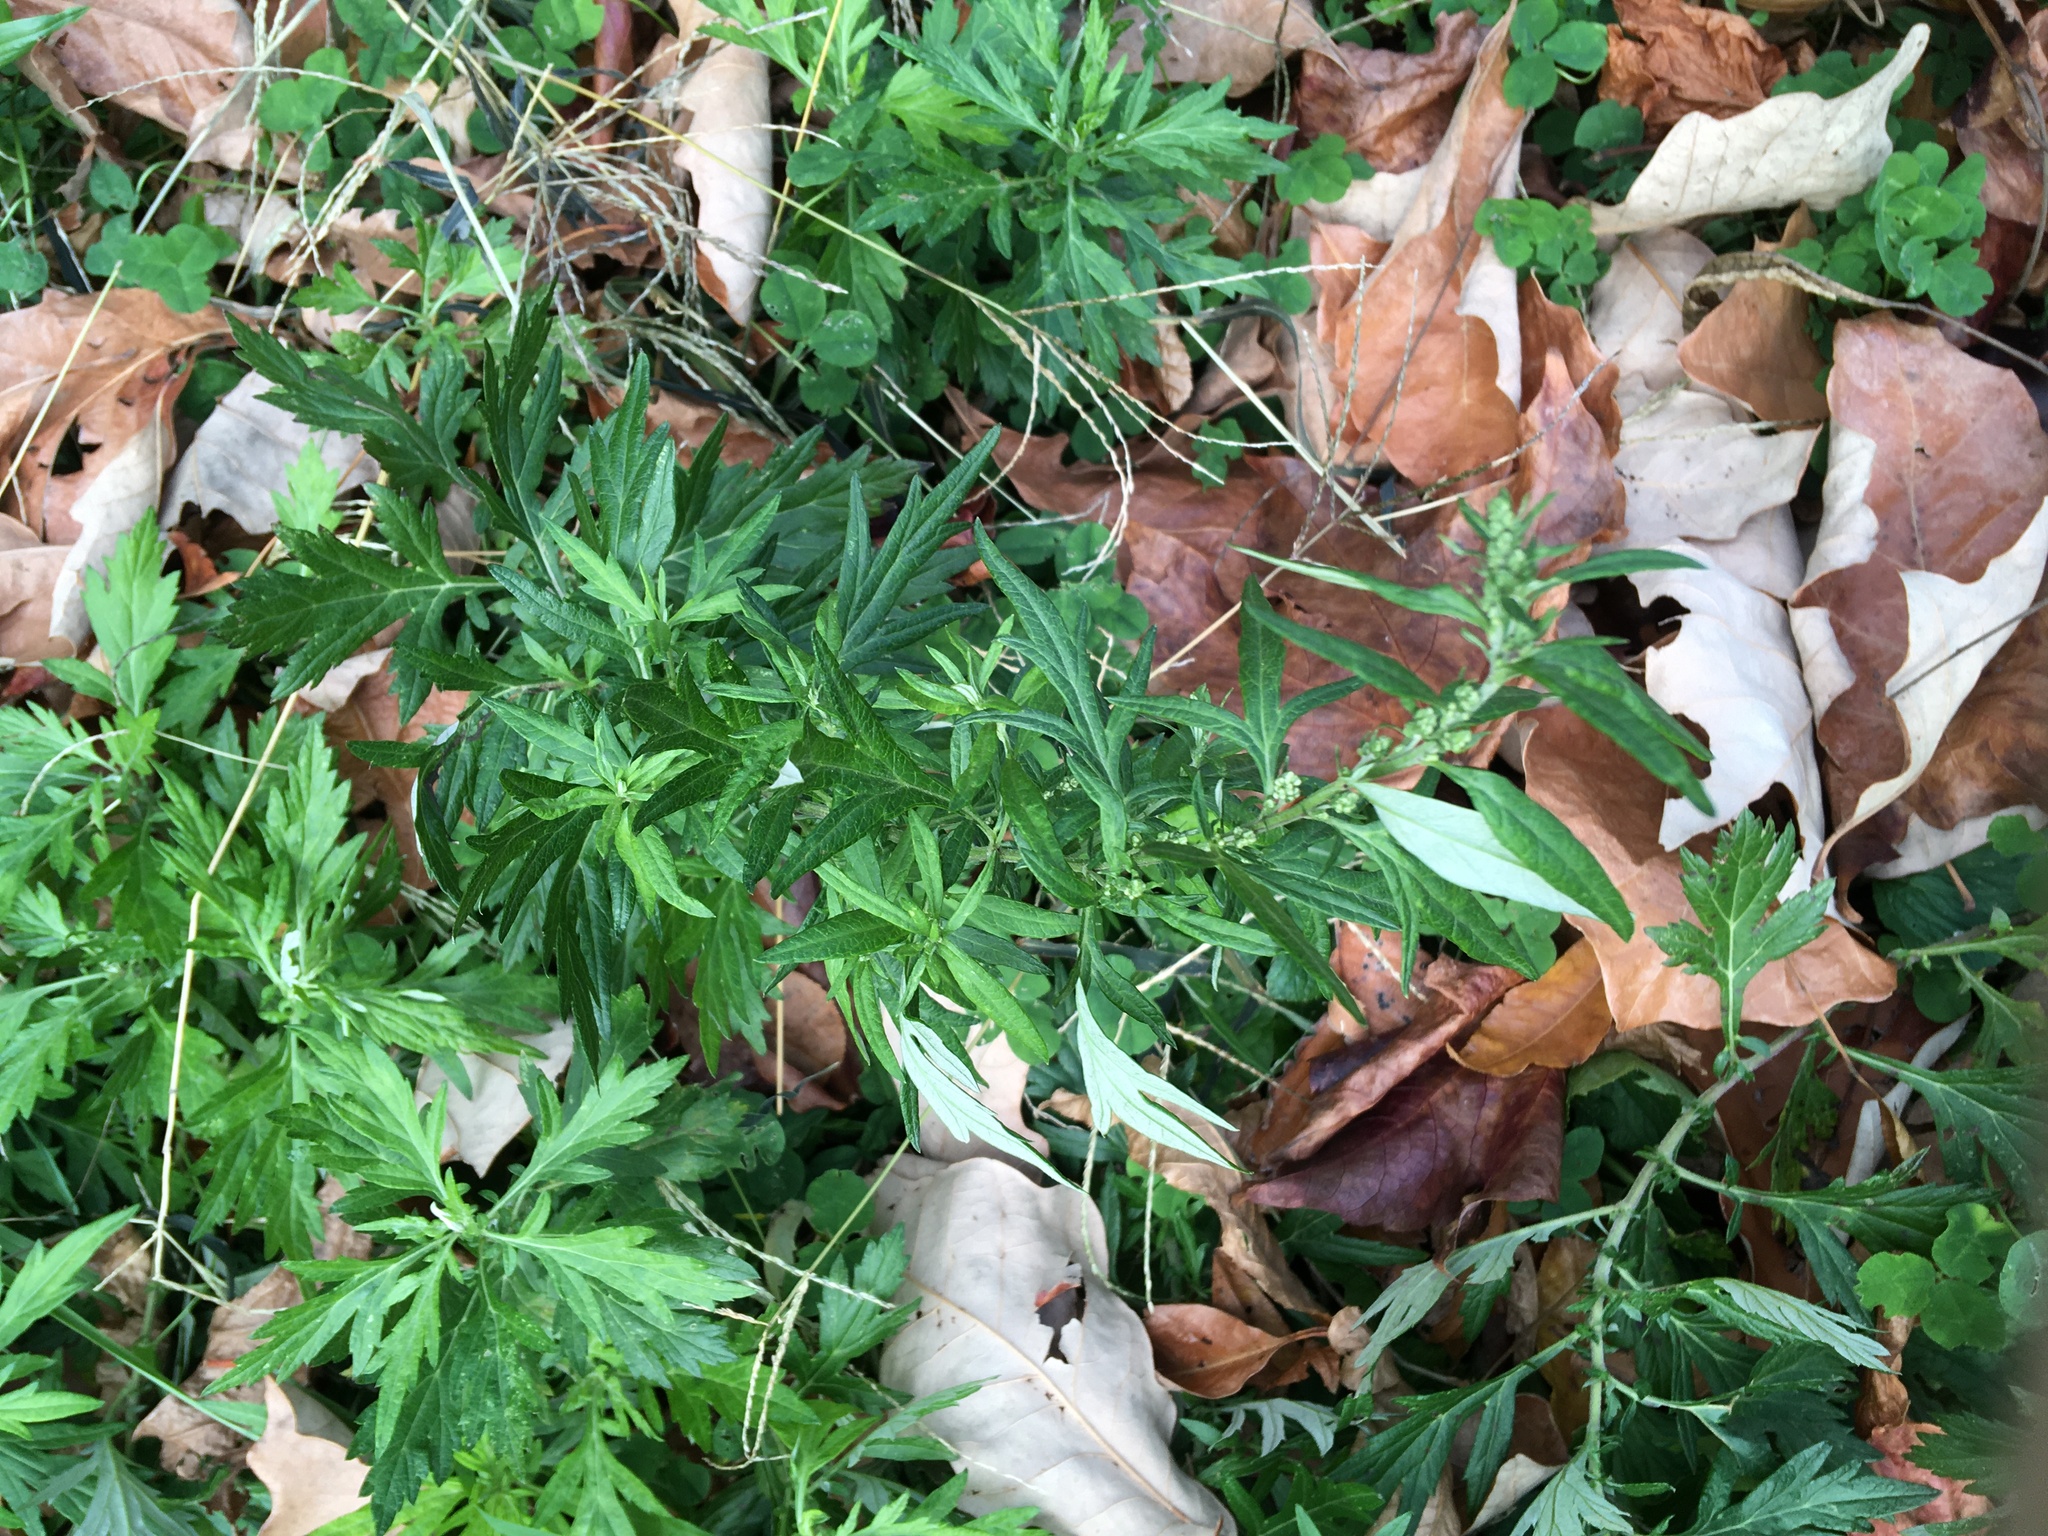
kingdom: Plantae
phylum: Tracheophyta
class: Magnoliopsida
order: Asterales
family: Asteraceae
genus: Artemisia
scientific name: Artemisia vulgaris
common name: Mugwort
